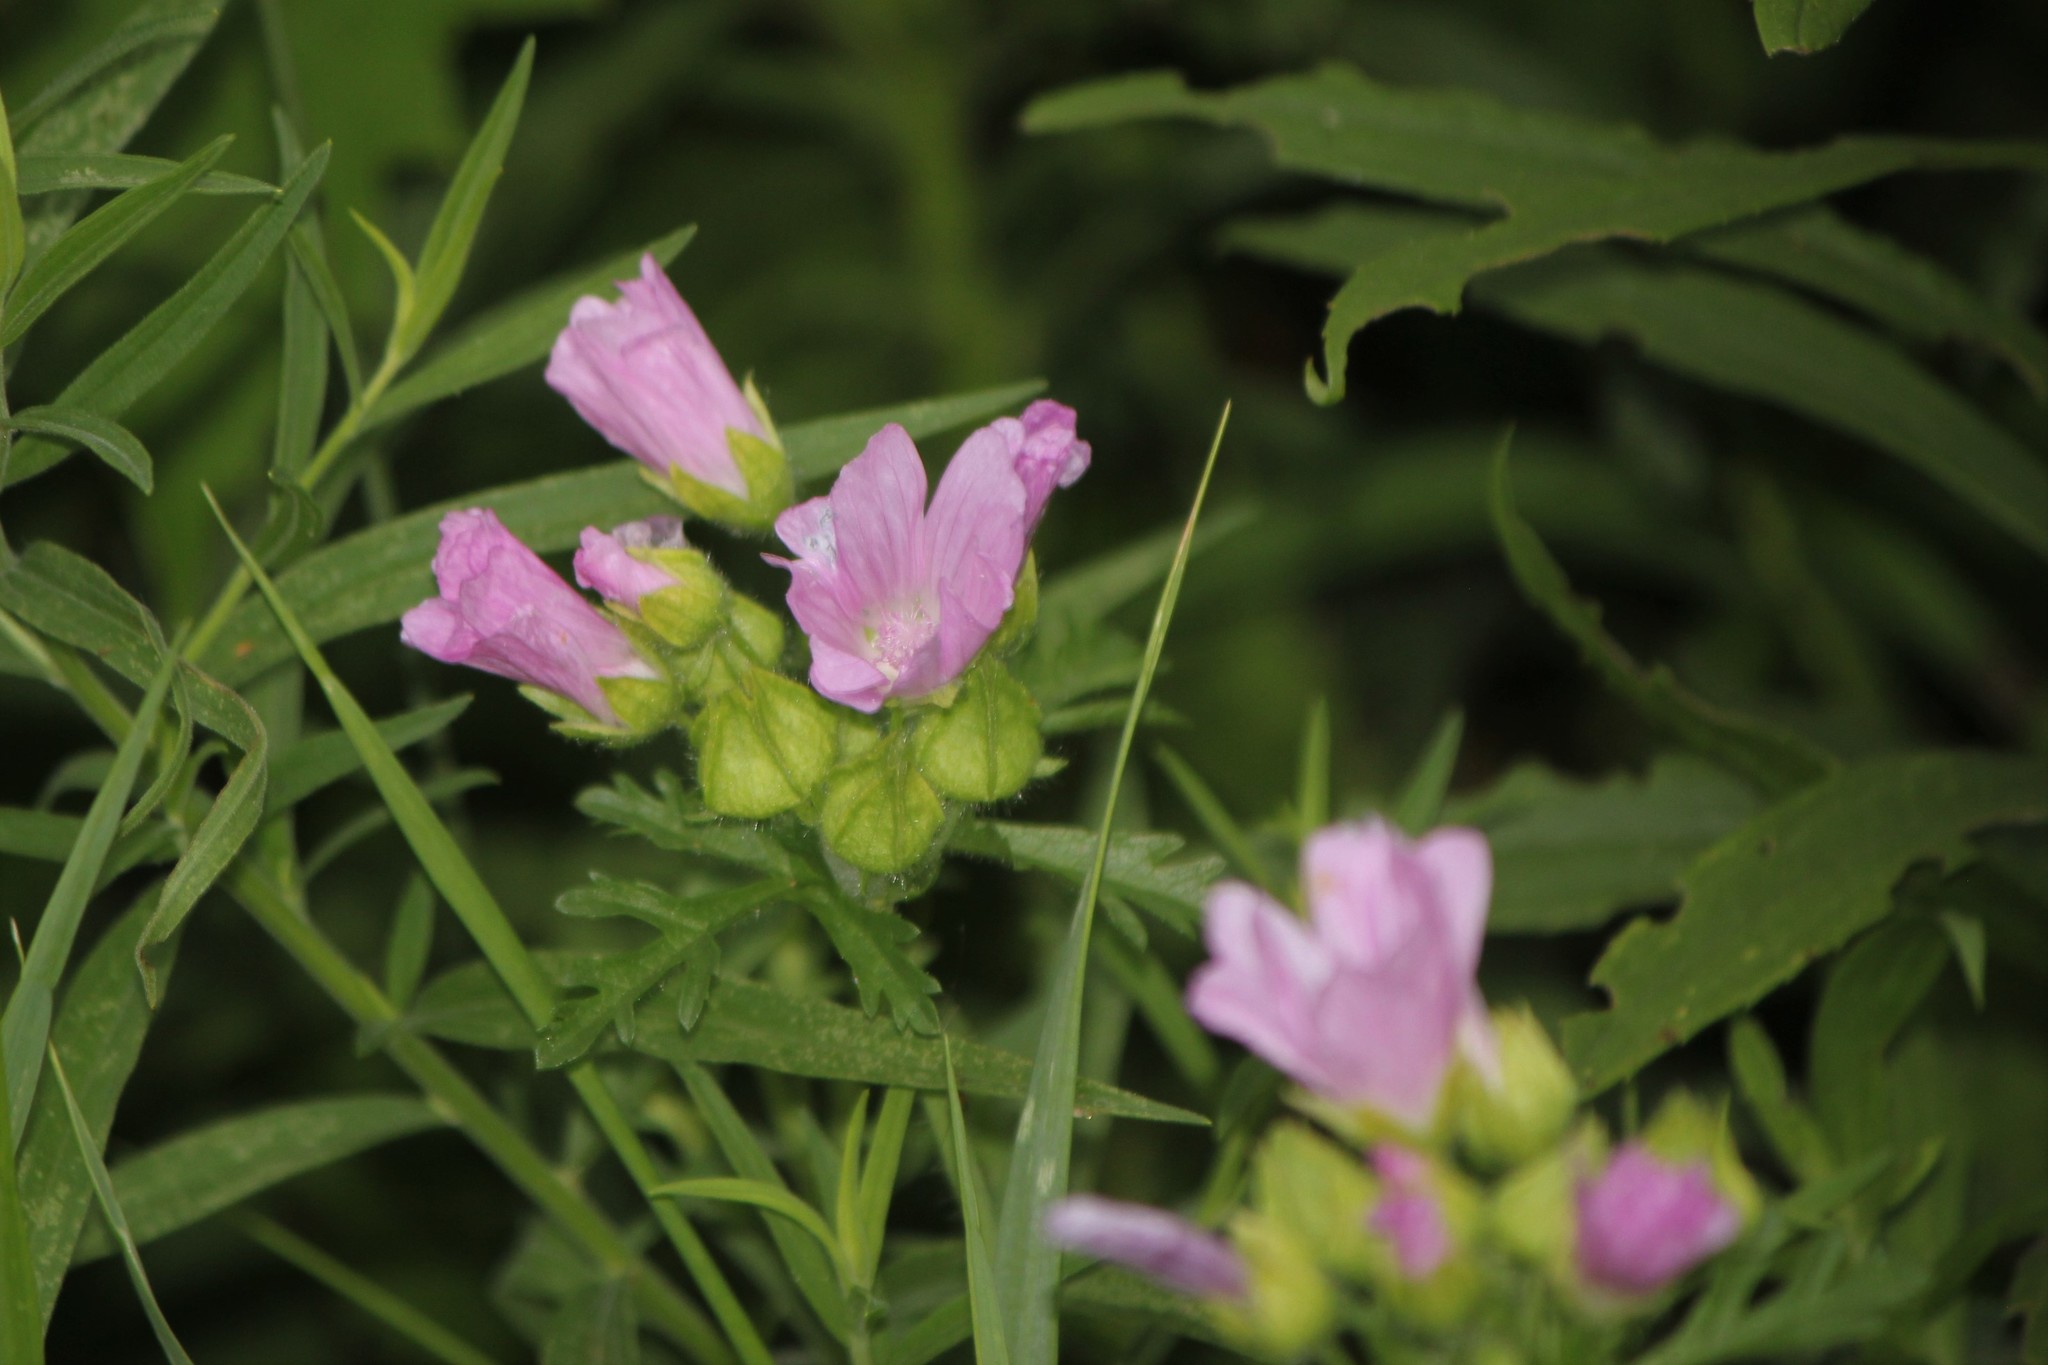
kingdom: Plantae
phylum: Tracheophyta
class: Magnoliopsida
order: Malvales
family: Malvaceae
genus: Malva
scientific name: Malva moschata
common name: Musk mallow
